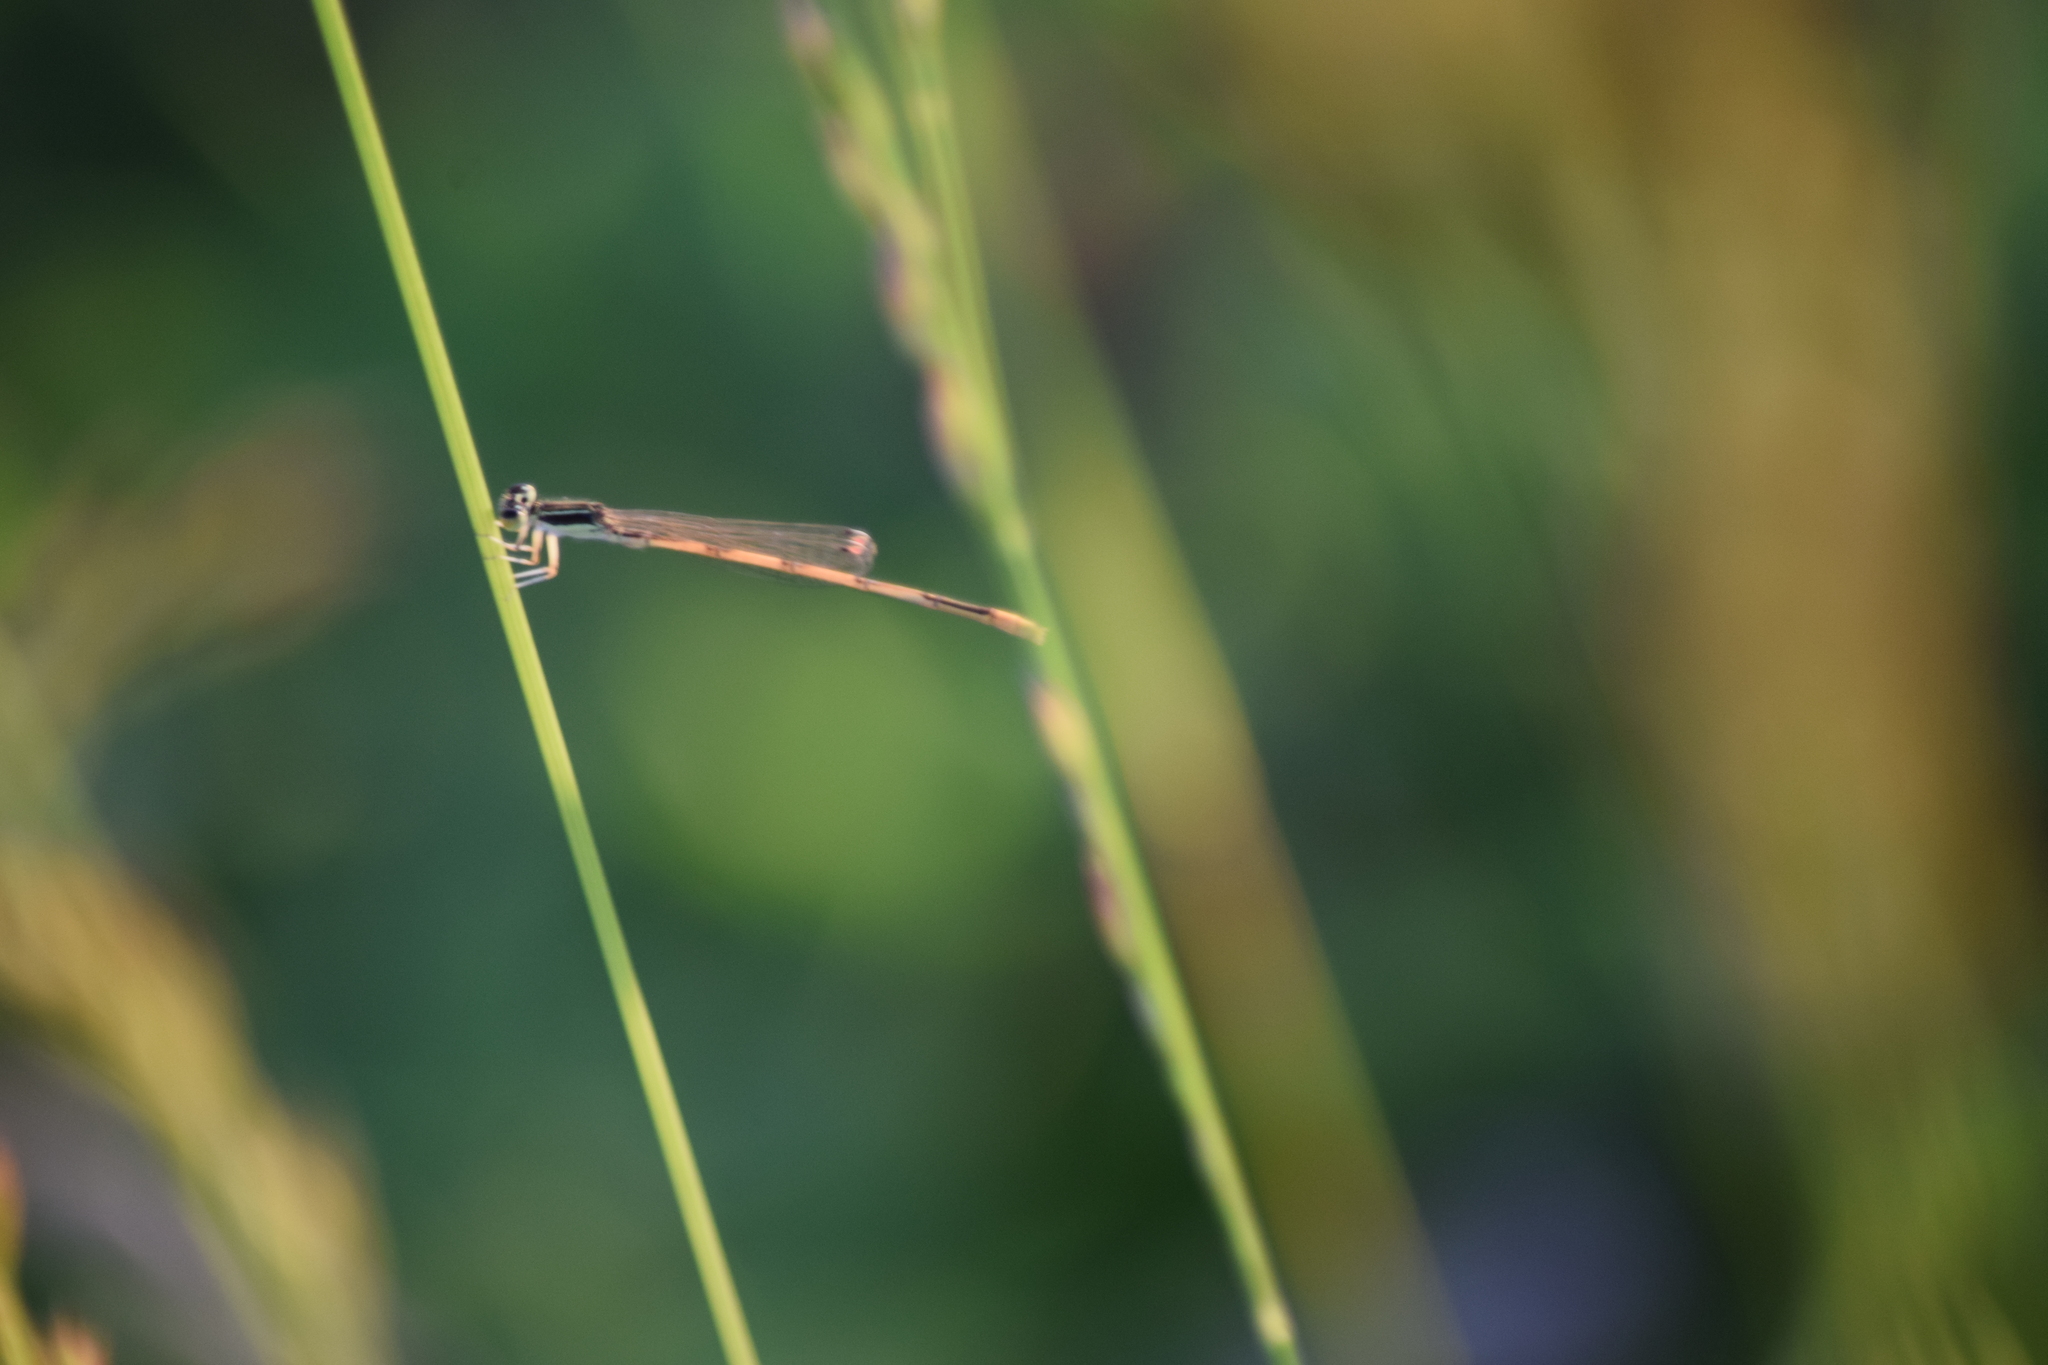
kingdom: Animalia
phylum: Arthropoda
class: Insecta
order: Odonata
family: Coenagrionidae
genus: Ischnura
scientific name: Ischnura hastata
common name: Citrine forktail
